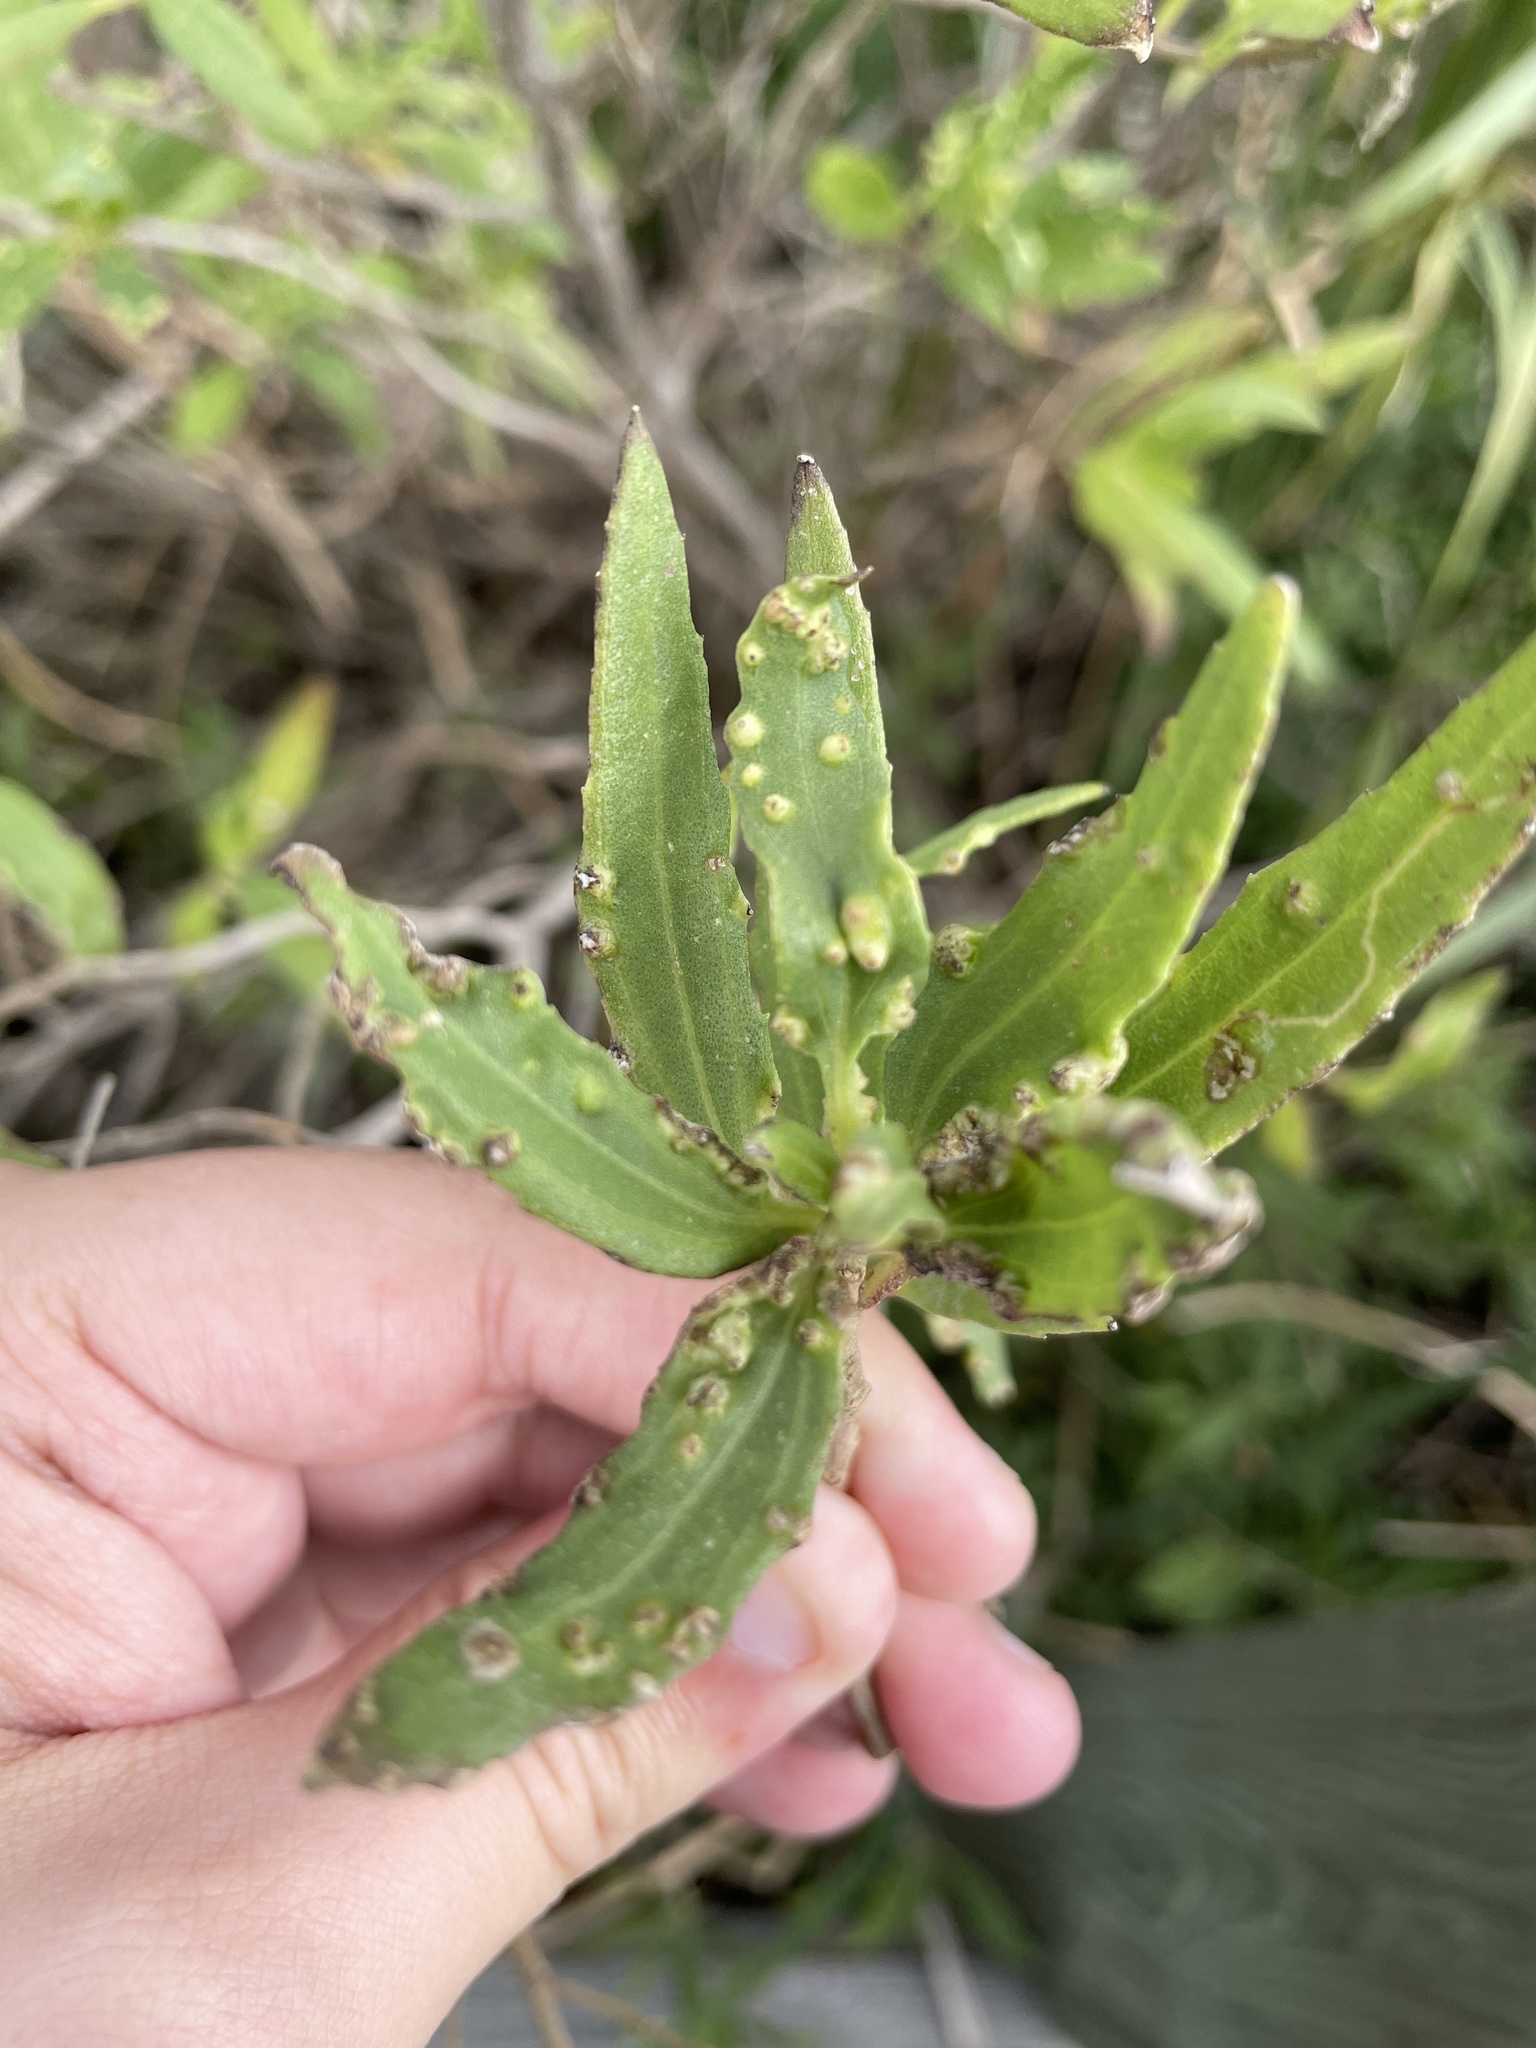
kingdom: Plantae
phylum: Tracheophyta
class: Magnoliopsida
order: Asterales
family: Asteraceae
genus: Iva
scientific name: Iva frutescens
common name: Big-leaved marsh-elder
